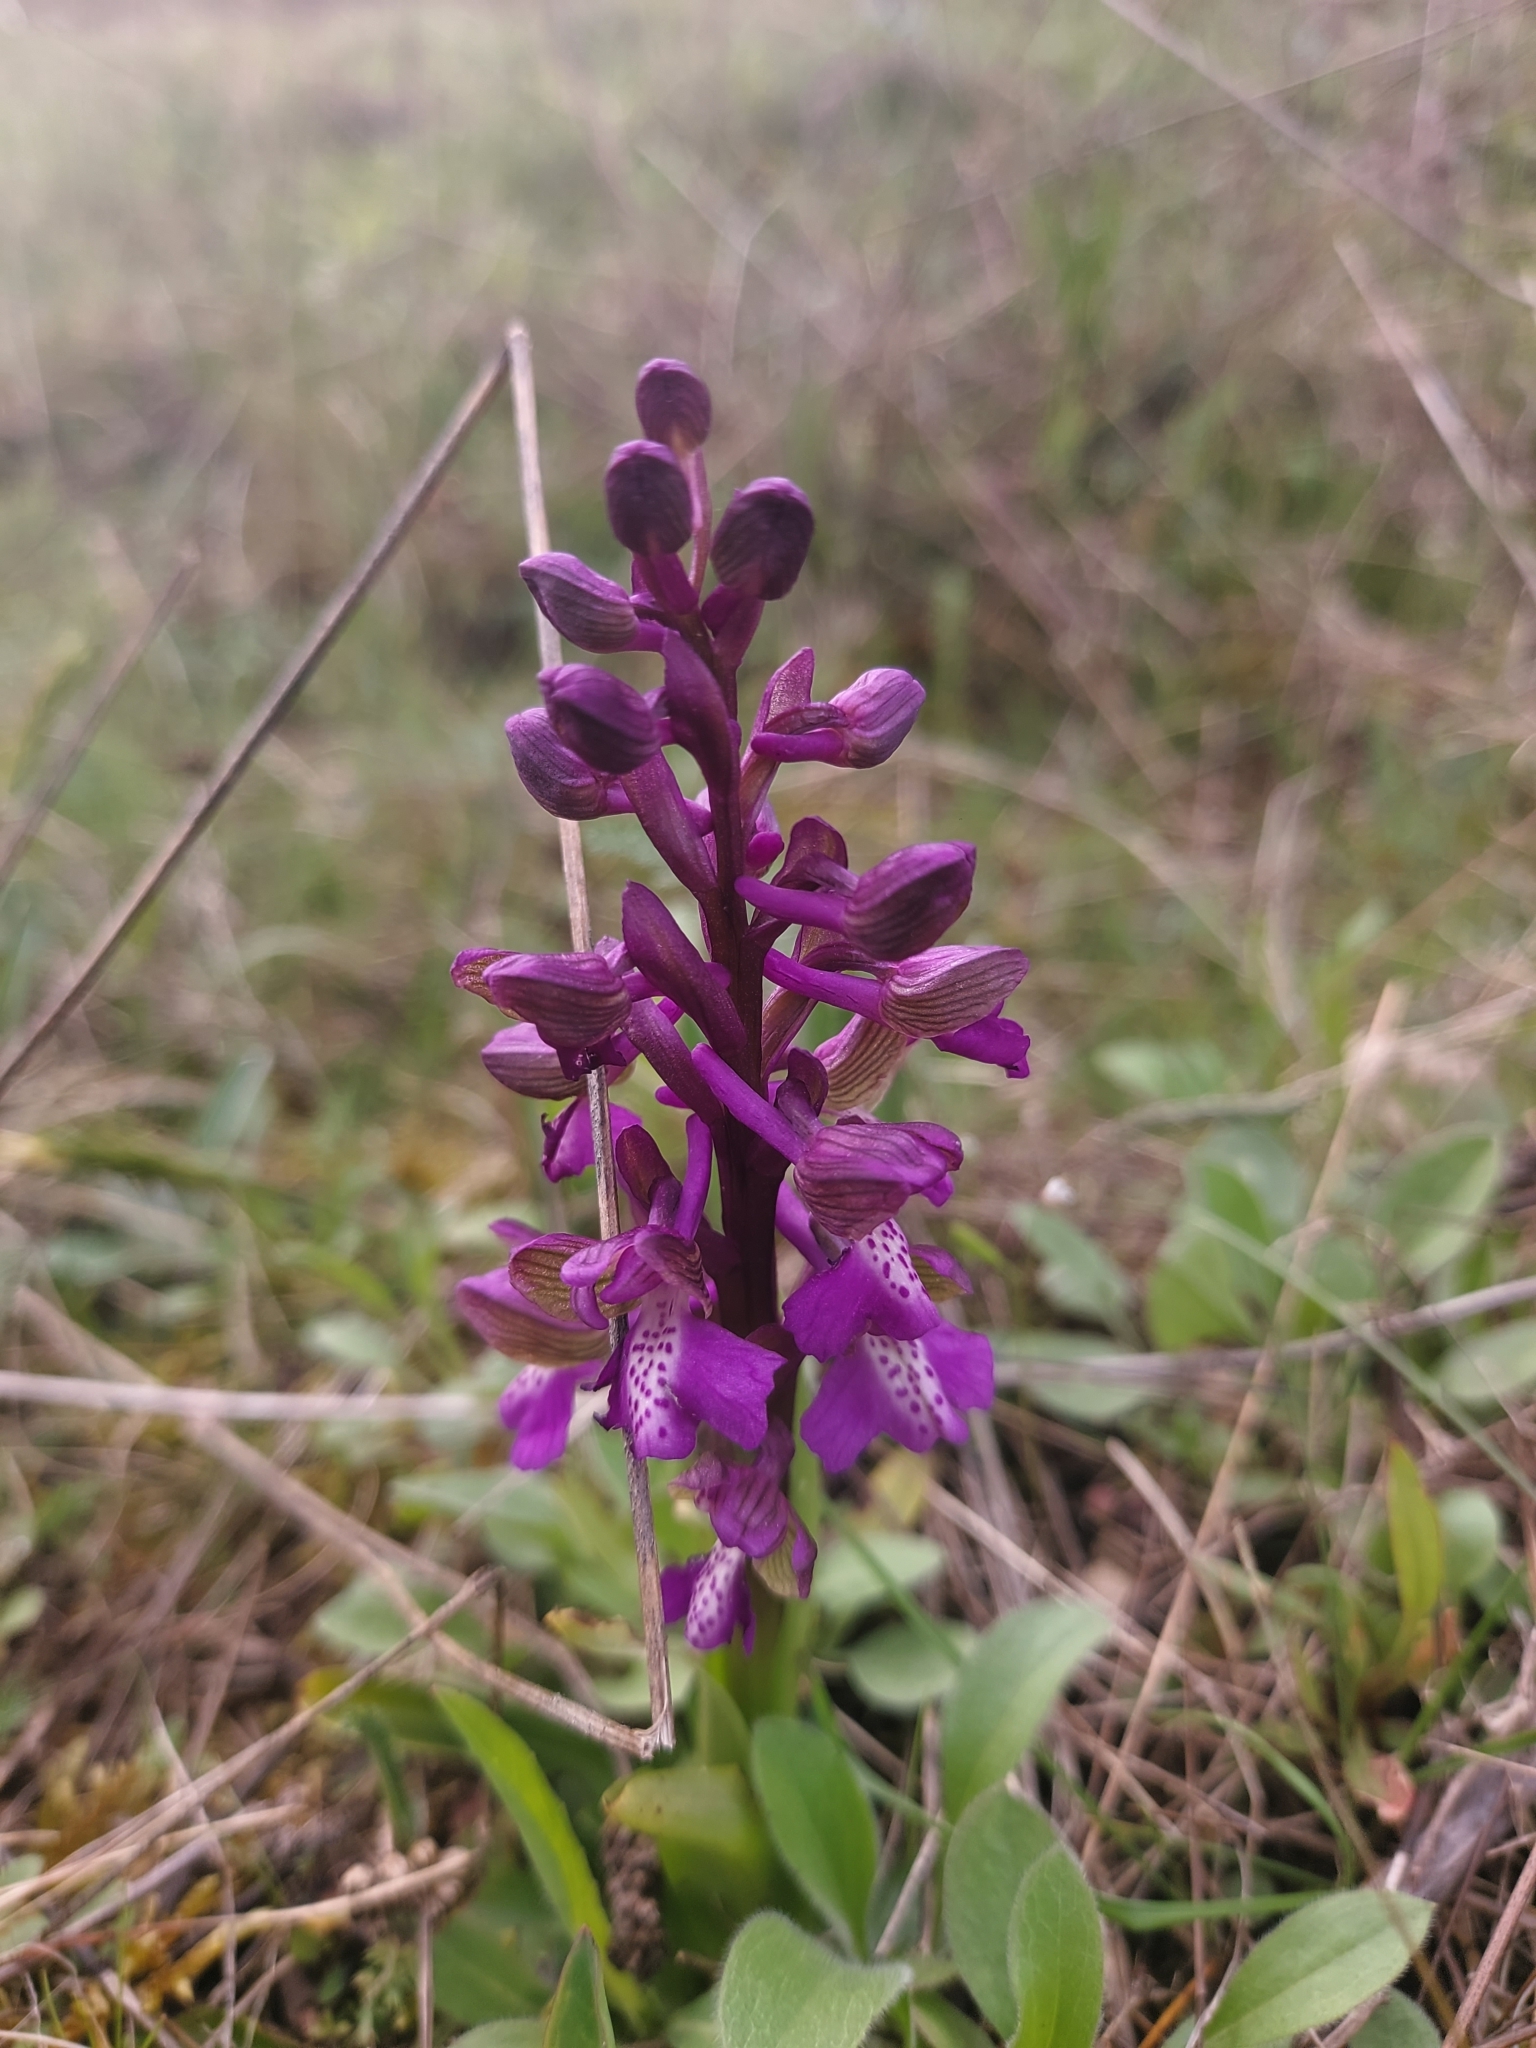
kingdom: Plantae
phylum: Tracheophyta
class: Liliopsida
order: Asparagales
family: Orchidaceae
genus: Anacamptis
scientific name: Anacamptis morio
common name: Green-winged orchid
